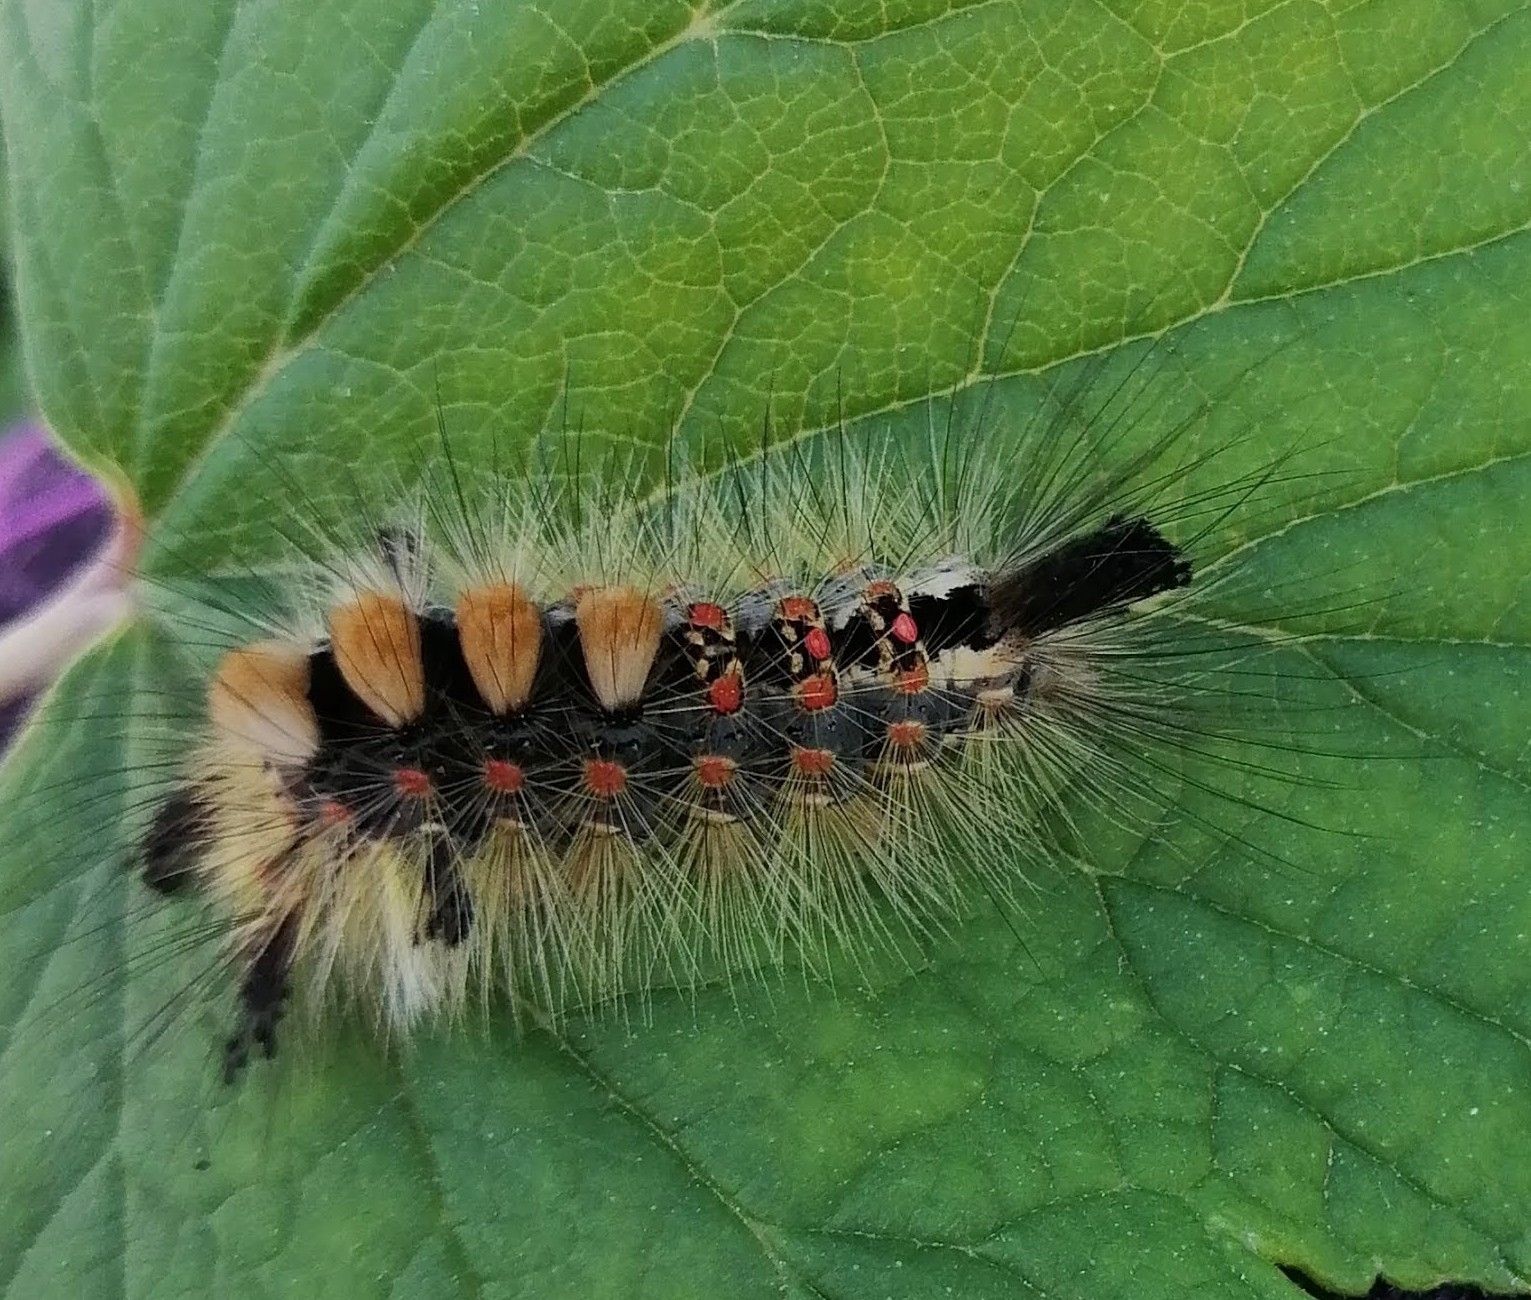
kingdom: Animalia
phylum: Arthropoda
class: Insecta
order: Lepidoptera
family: Erebidae
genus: Orgyia
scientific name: Orgyia antiqua
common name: Vapourer
